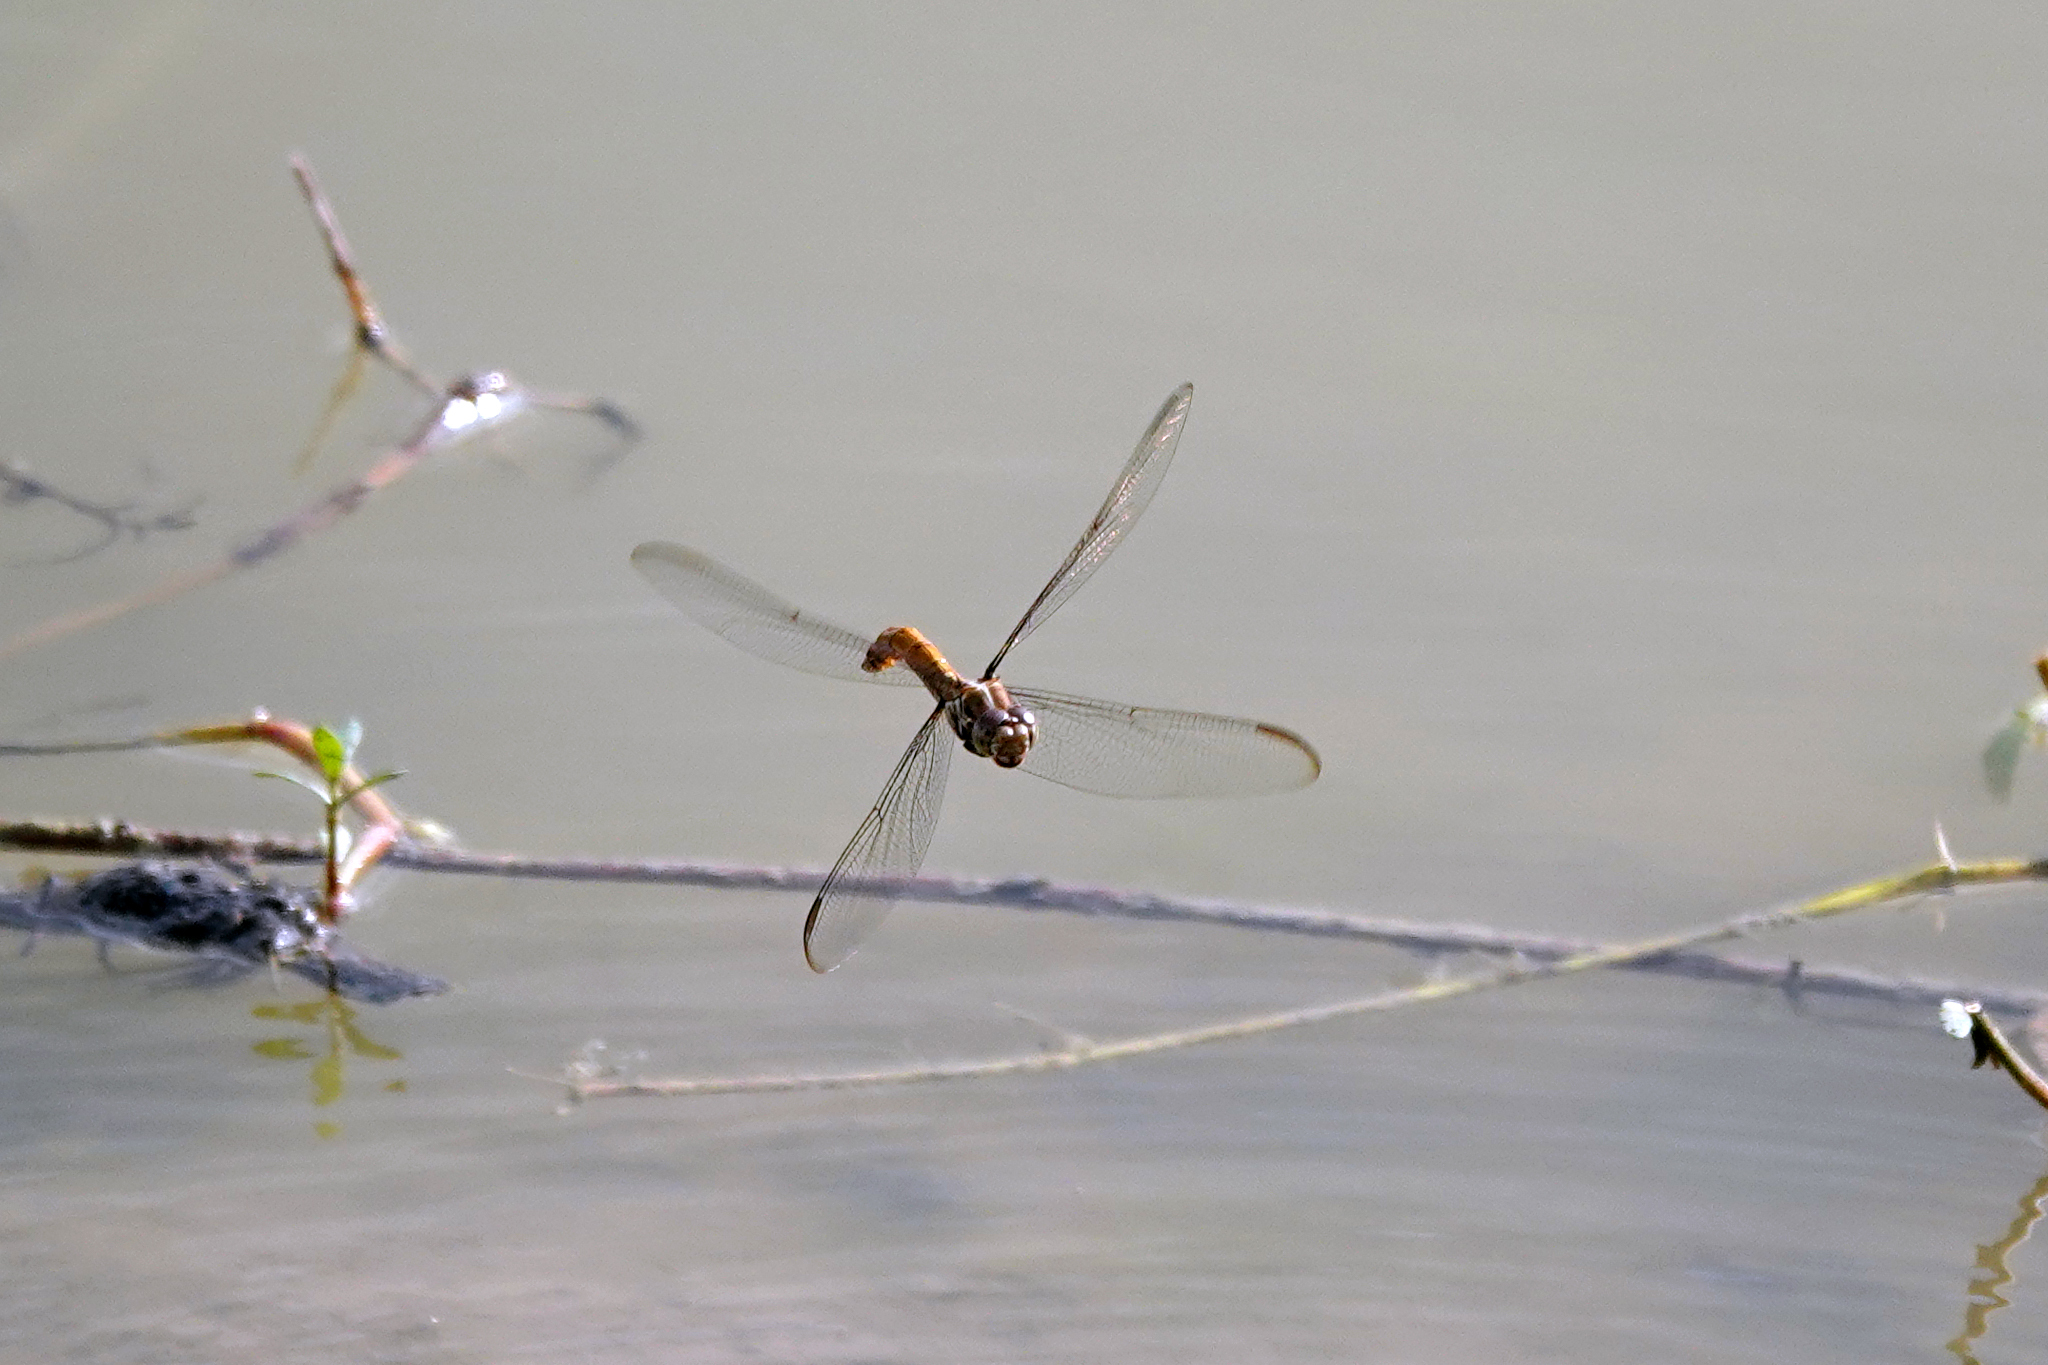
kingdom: Animalia
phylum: Arthropoda
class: Insecta
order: Odonata
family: Libellulidae
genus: Orthemis
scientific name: Orthemis ferruginea
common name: Roseate skimmer
